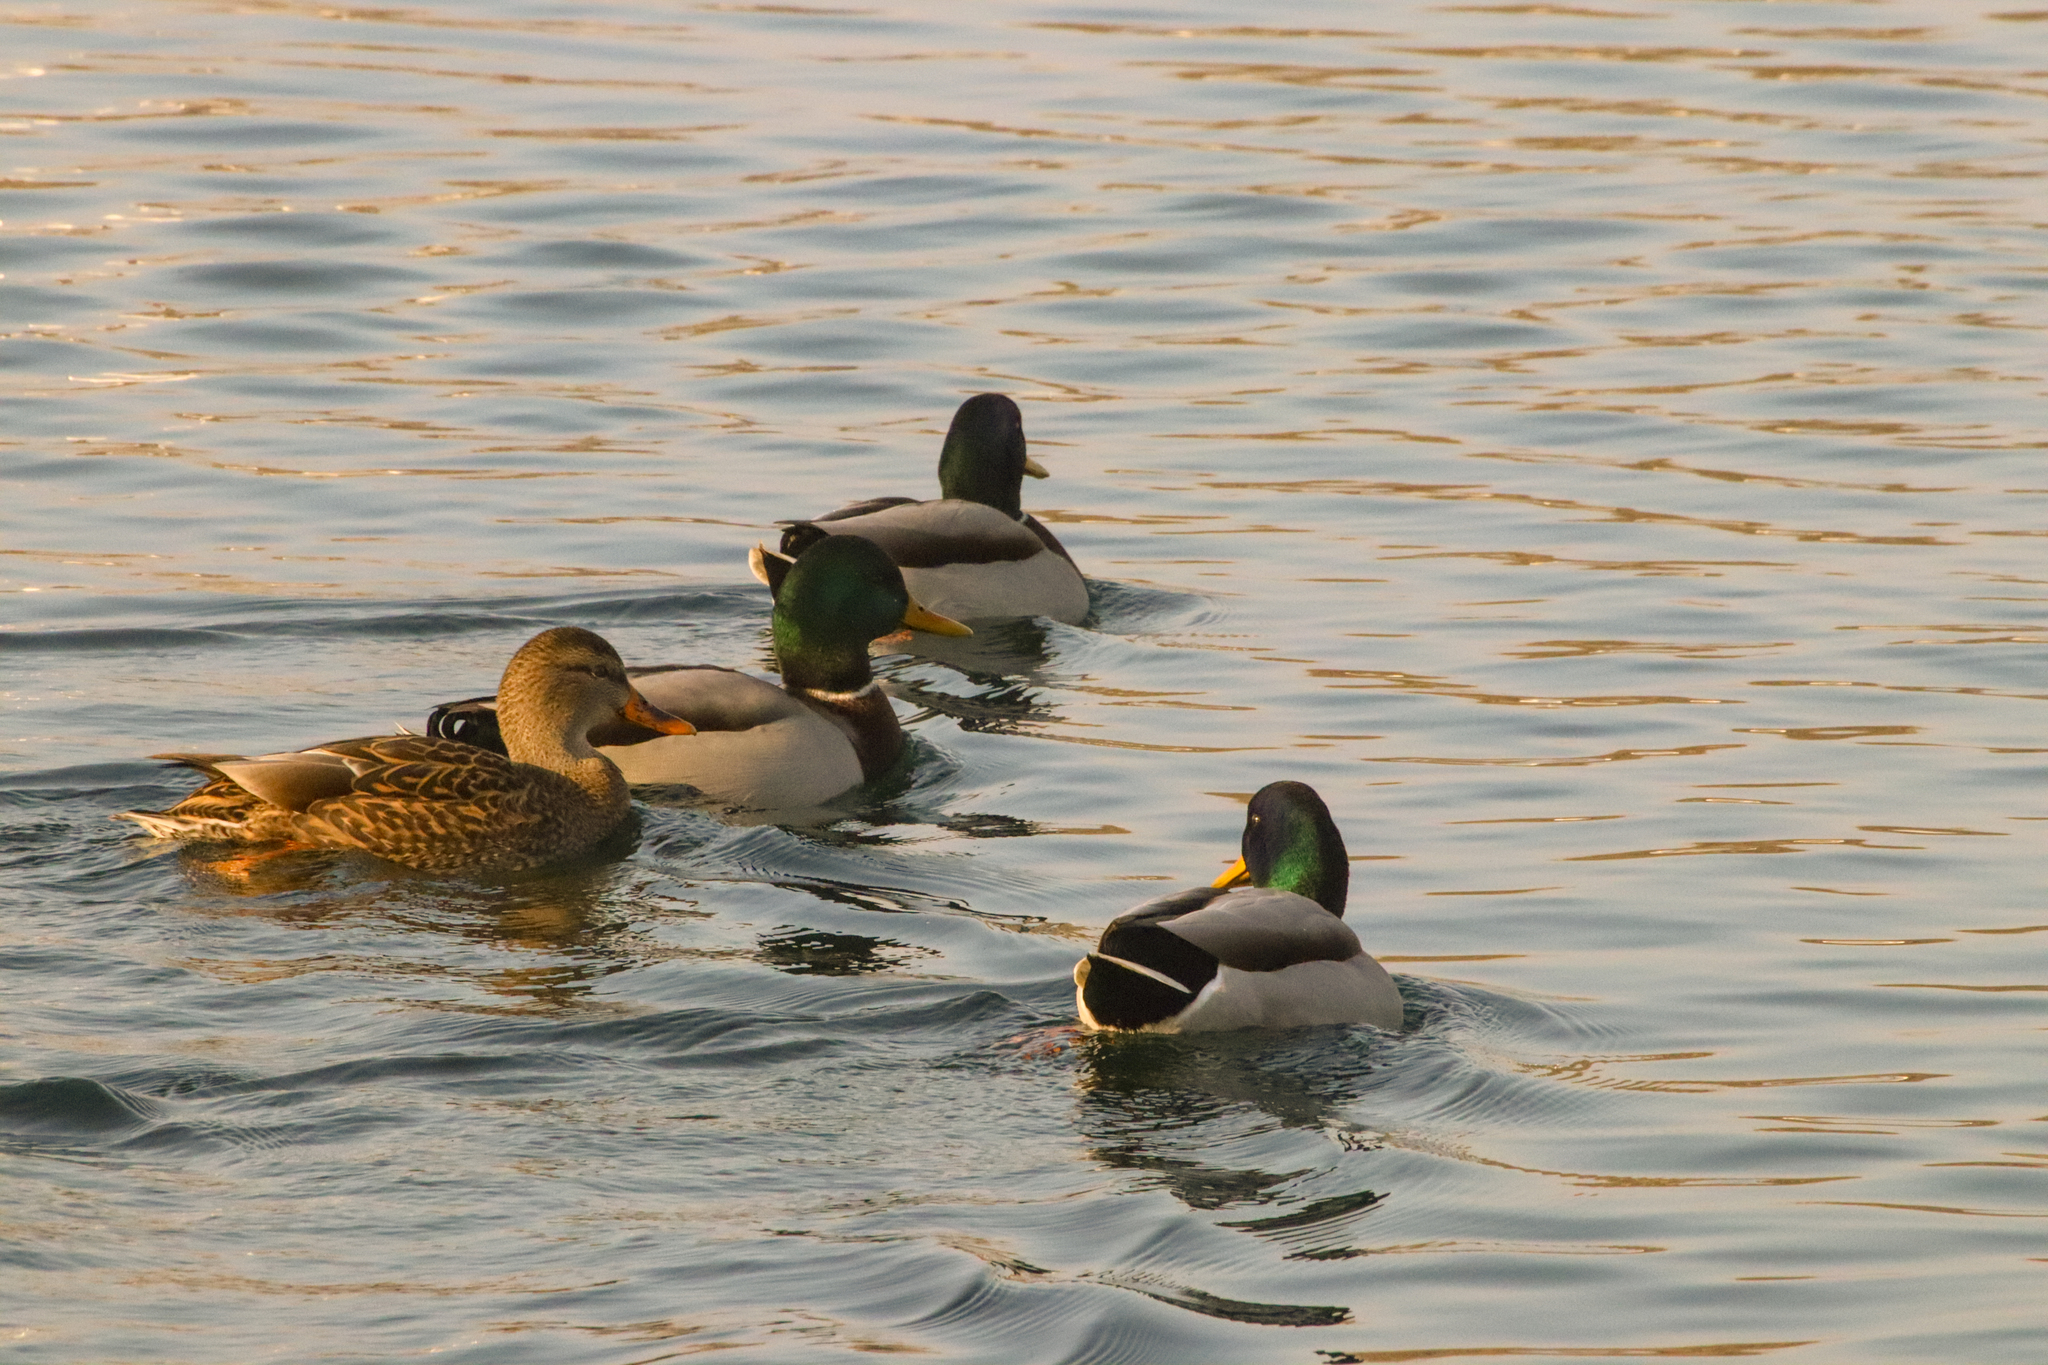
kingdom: Animalia
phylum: Chordata
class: Aves
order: Anseriformes
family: Anatidae
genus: Anas
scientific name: Anas platyrhynchos
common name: Mallard
